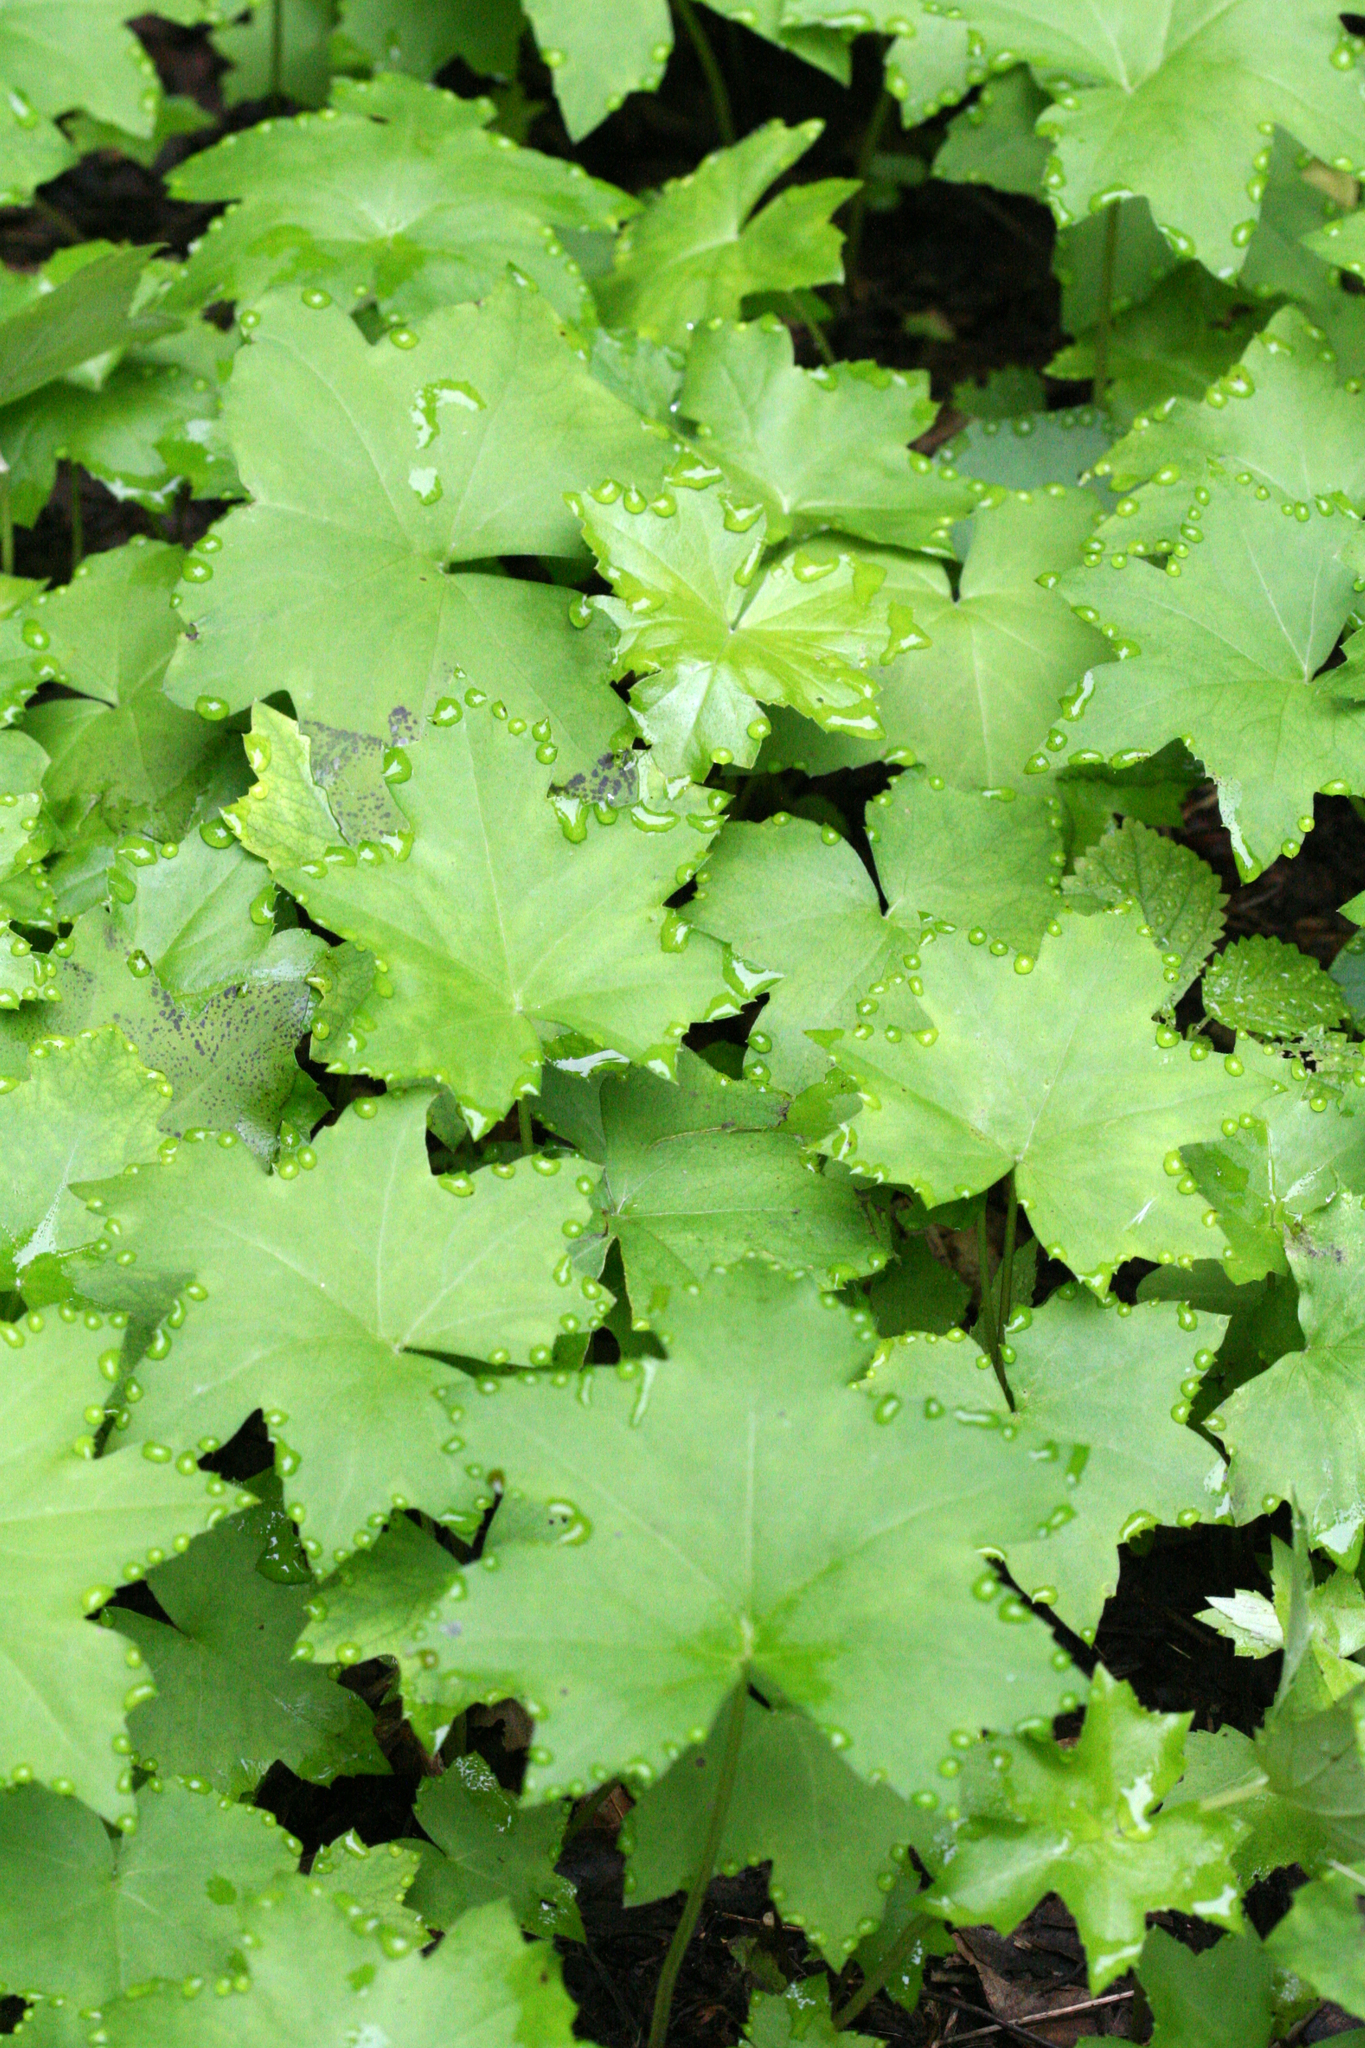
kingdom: Plantae
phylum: Tracheophyta
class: Magnoliopsida
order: Boraginales
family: Hydrophyllaceae
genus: Hydrophyllum
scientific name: Hydrophyllum canadense
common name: Canada waterleaf
